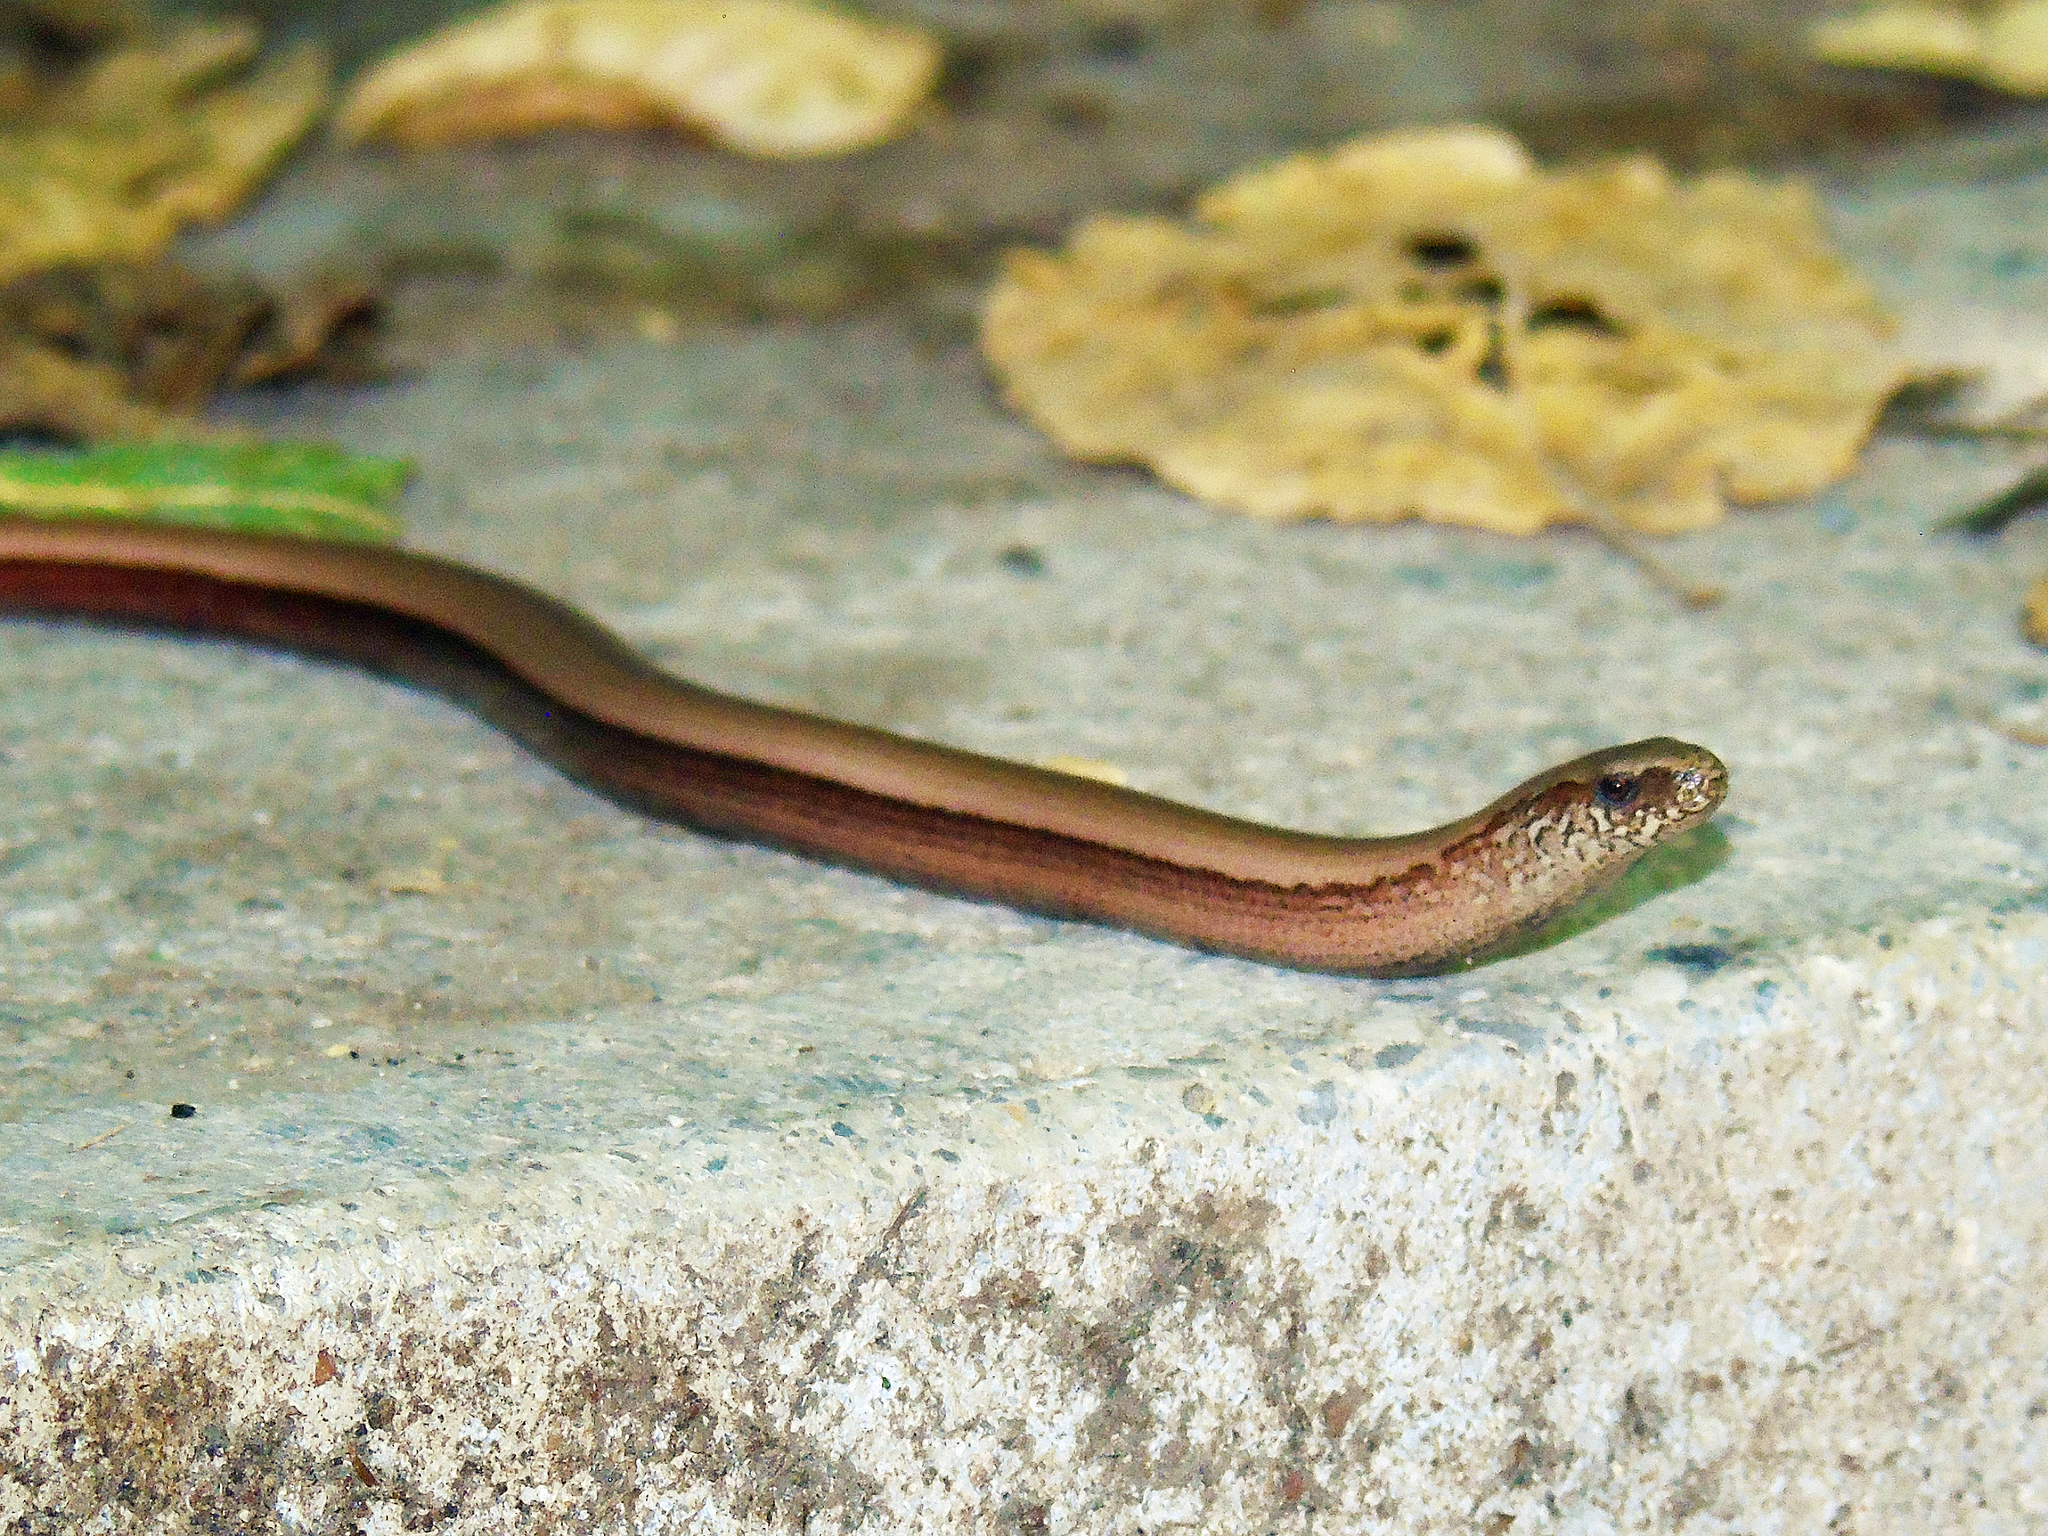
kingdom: Animalia
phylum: Chordata
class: Squamata
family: Anguidae
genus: Anguis
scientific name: Anguis fragilis
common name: Slow worm
